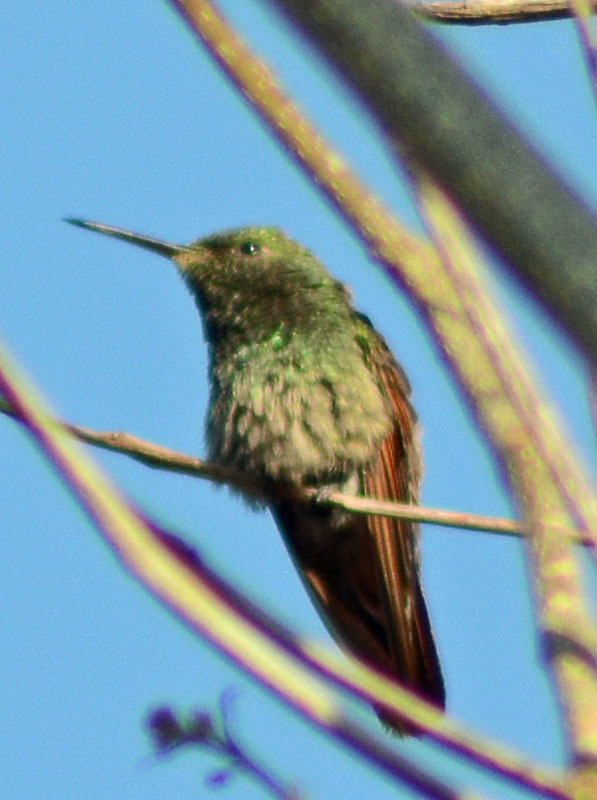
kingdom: Animalia
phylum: Chordata
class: Aves
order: Apodiformes
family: Trochilidae
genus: Saucerottia
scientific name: Saucerottia beryllina
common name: Berylline hummingbird
